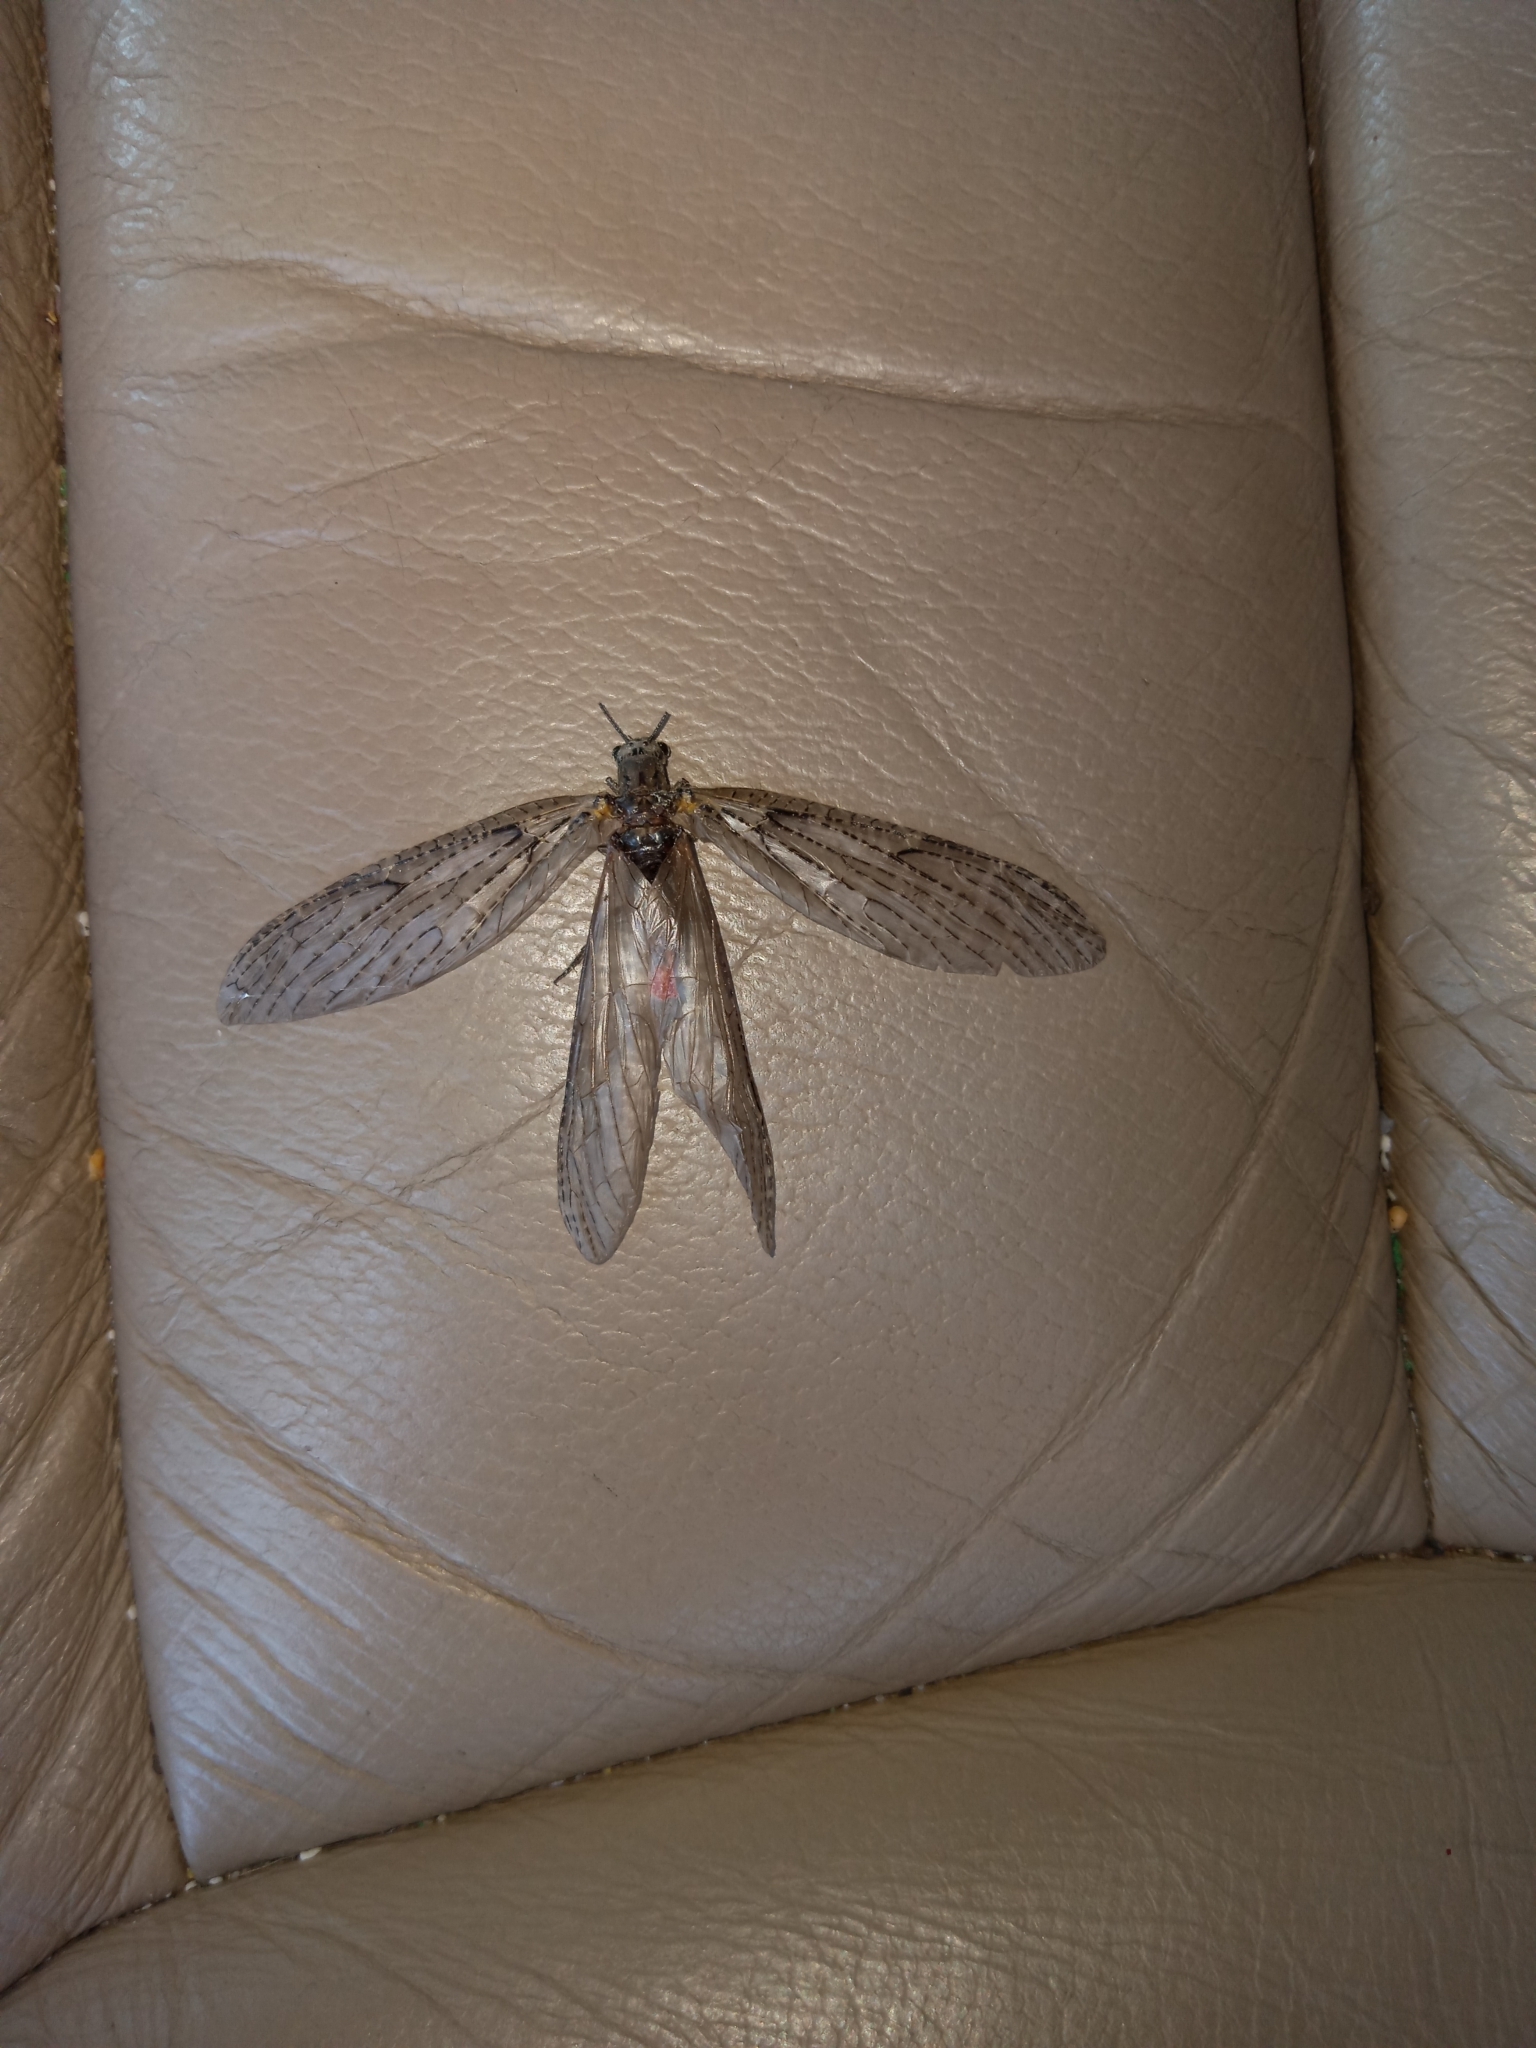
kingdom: Animalia
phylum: Arthropoda
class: Insecta
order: Megaloptera
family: Corydalidae
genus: Chauliodes
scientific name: Chauliodes rastricornis
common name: Spring fishfly
